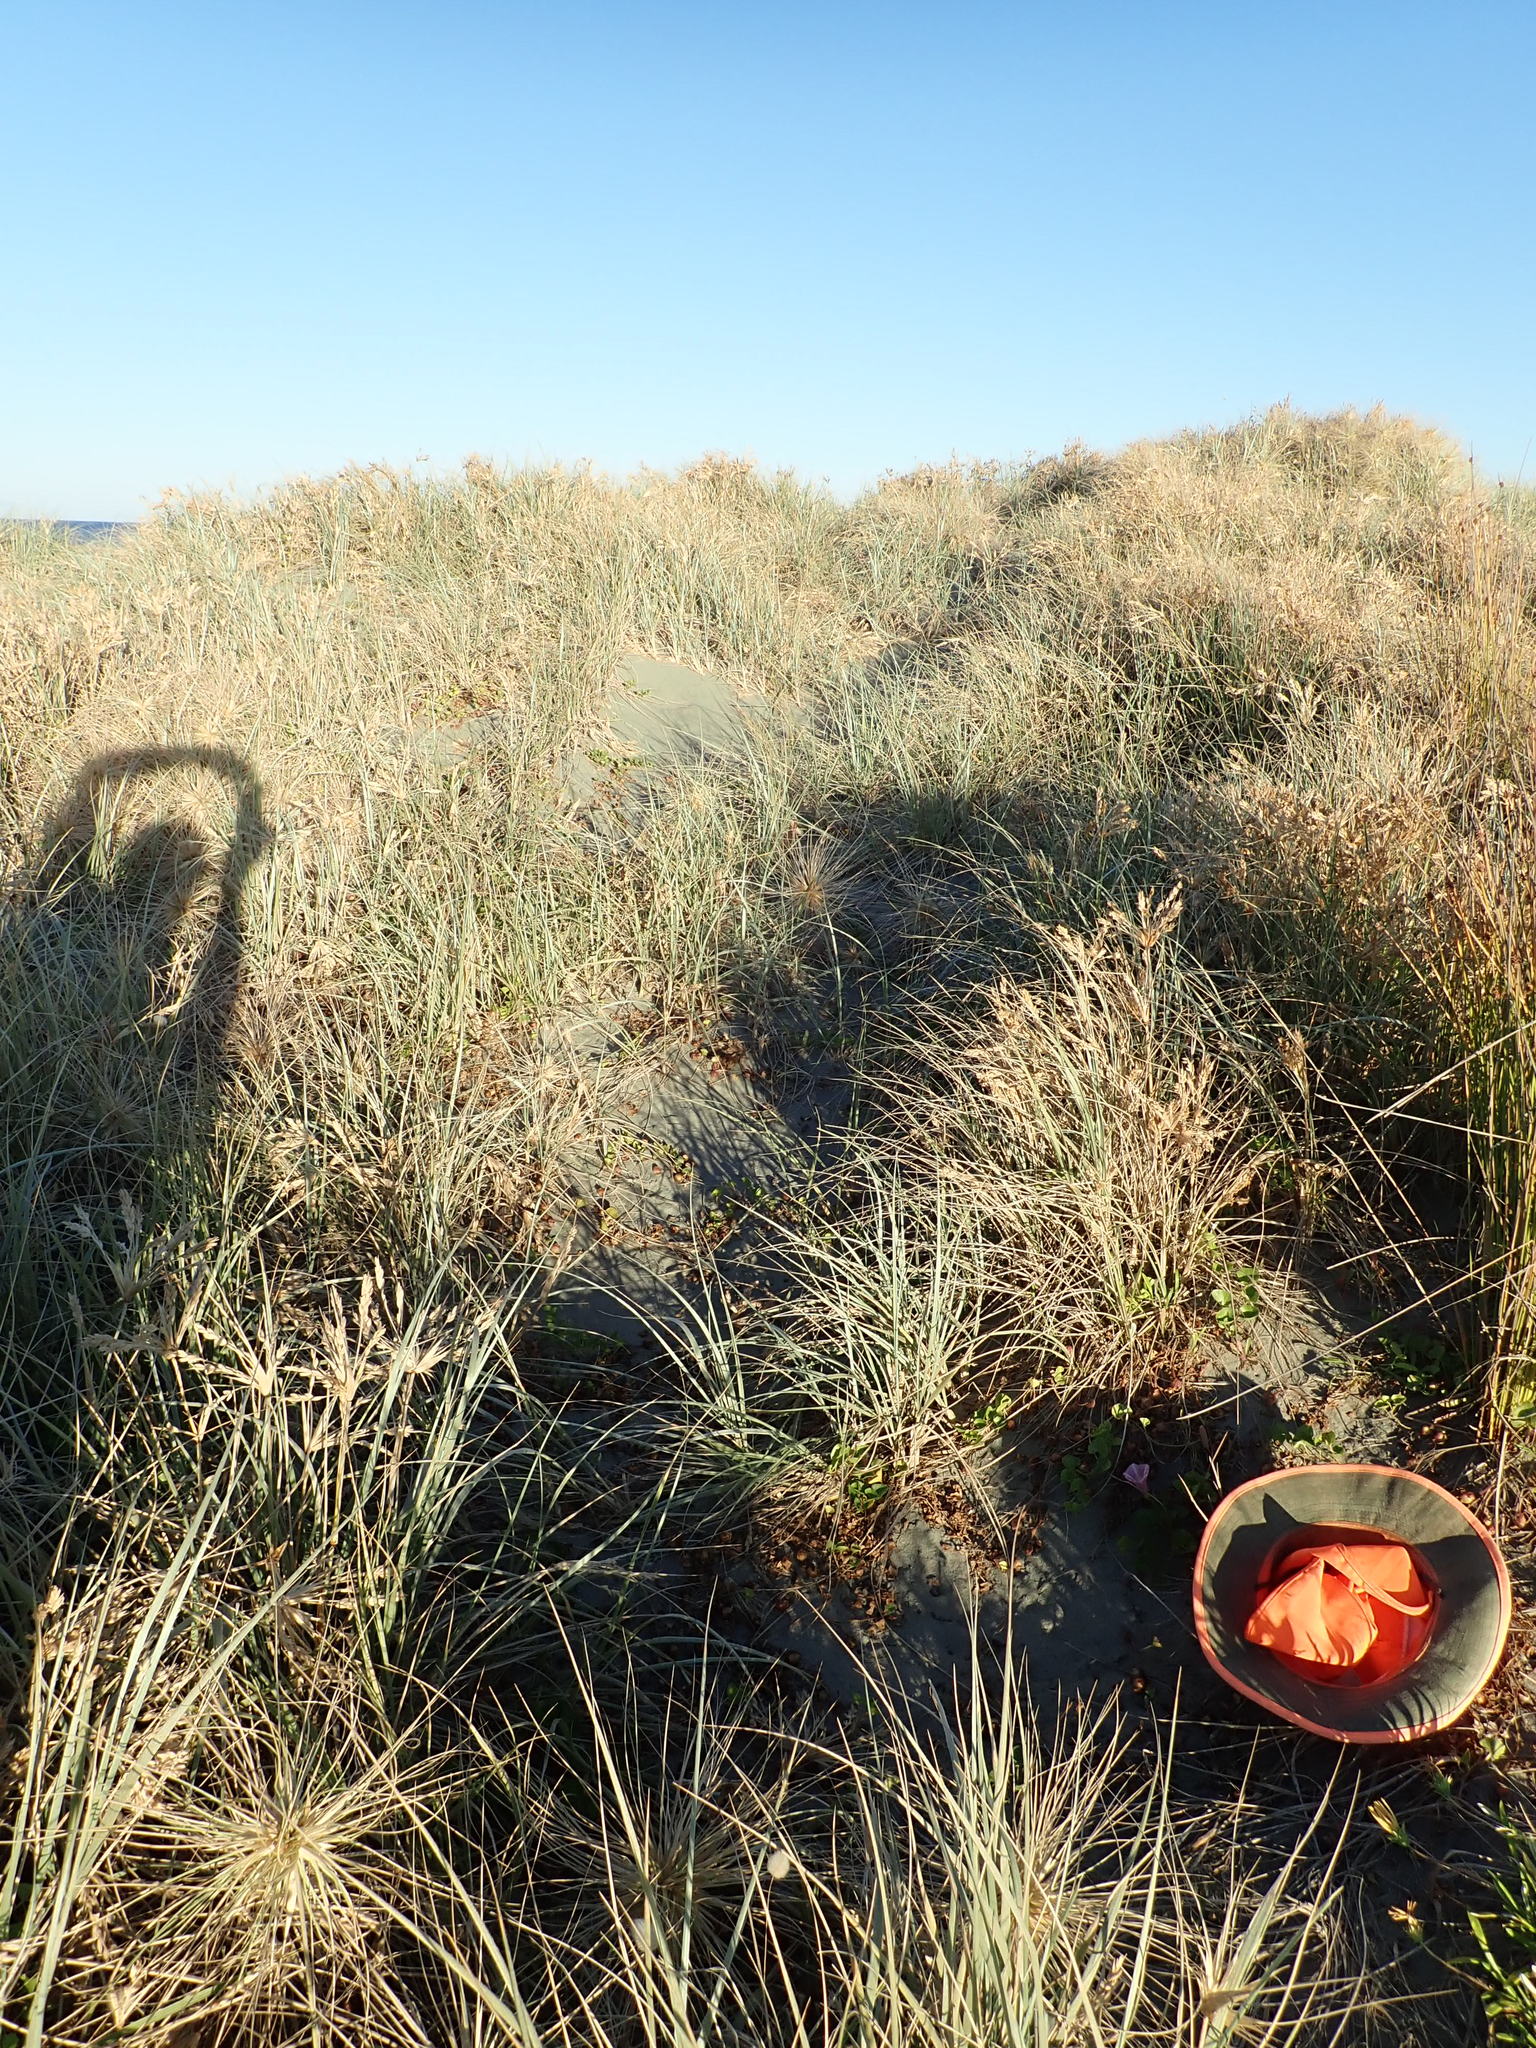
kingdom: Plantae
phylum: Tracheophyta
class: Magnoliopsida
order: Solanales
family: Convolvulaceae
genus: Calystegia
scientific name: Calystegia soldanella
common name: Sea bindweed
